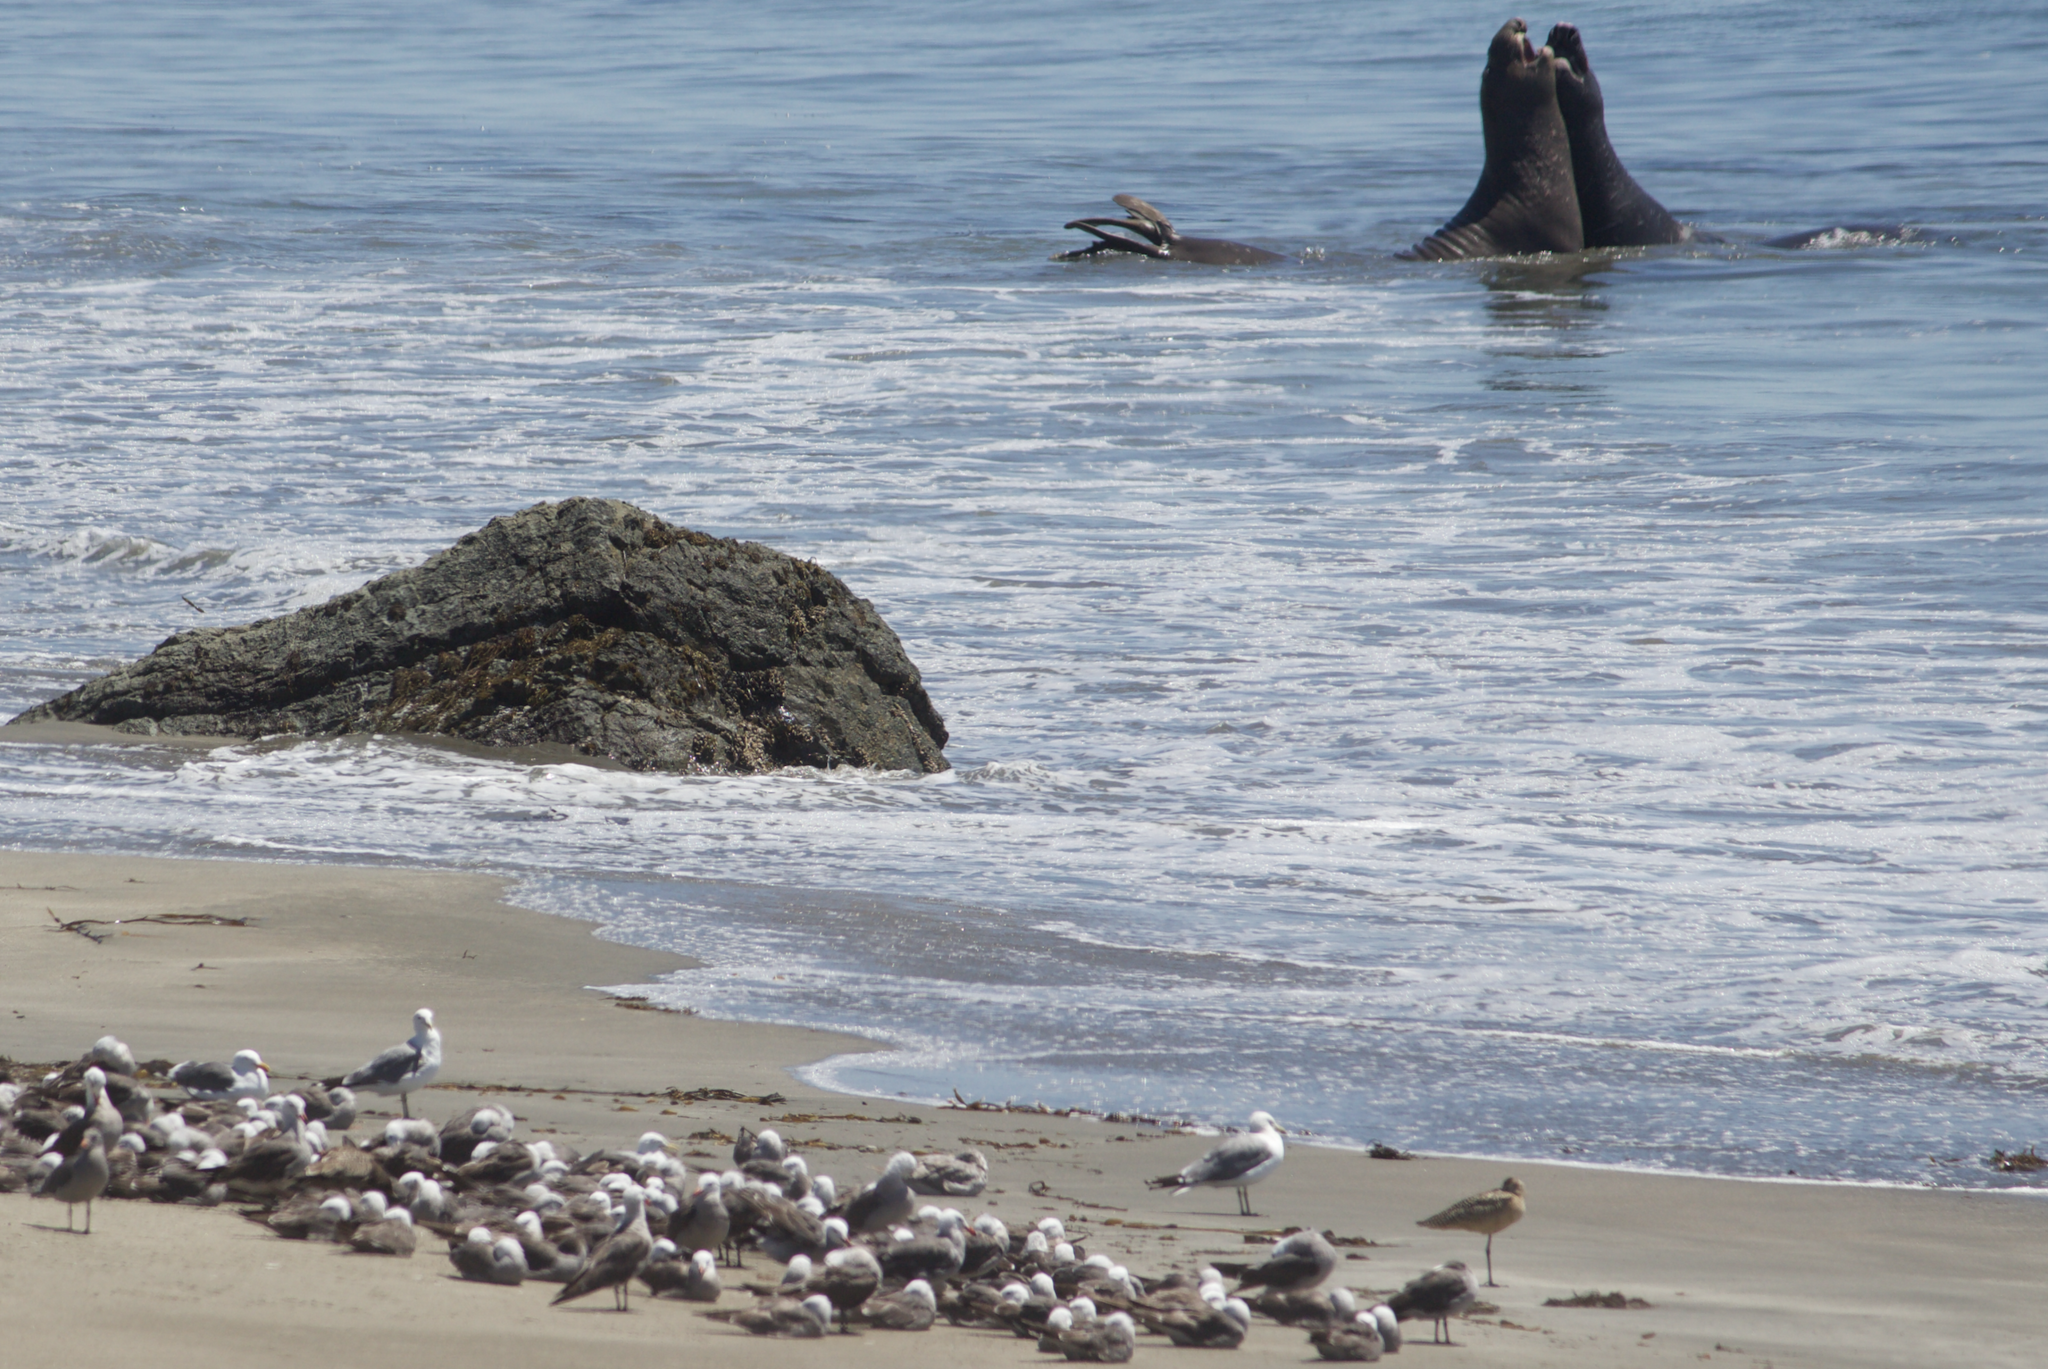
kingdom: Animalia
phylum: Chordata
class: Aves
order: Charadriiformes
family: Laridae
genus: Larus
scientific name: Larus heermanni
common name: Heermann's gull
